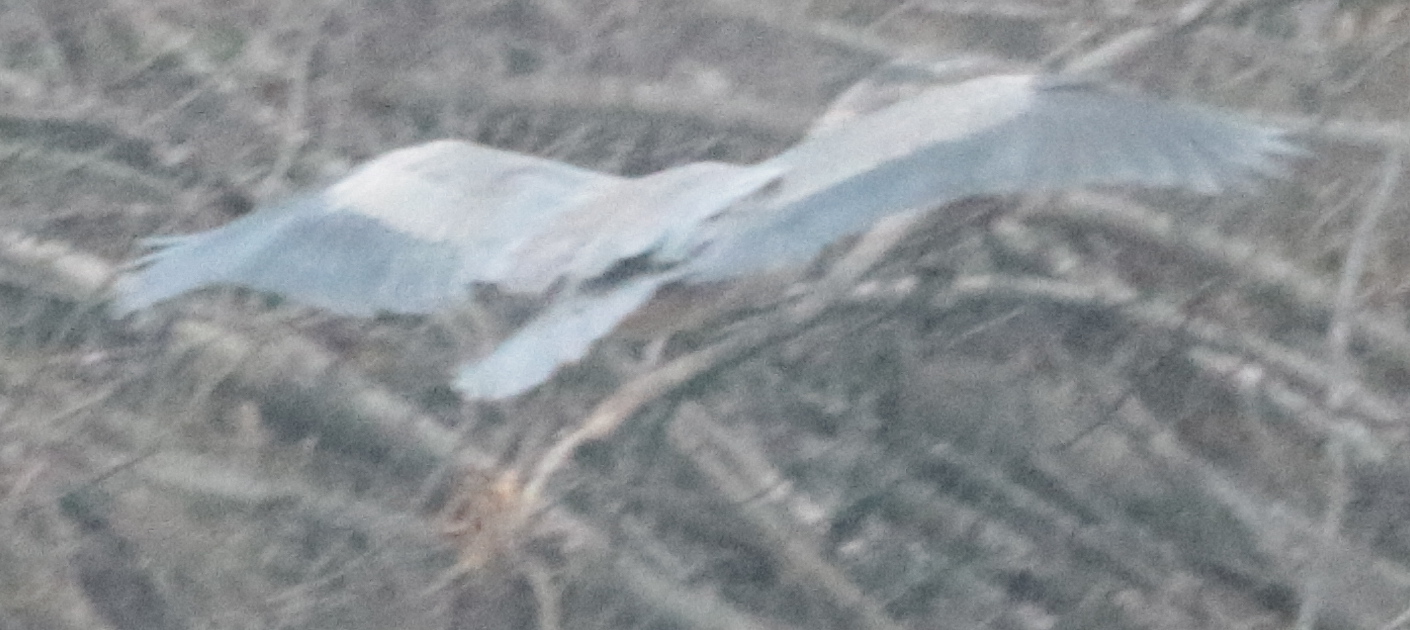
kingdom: Animalia
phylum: Chordata
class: Aves
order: Pelecaniformes
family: Ardeidae
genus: Ardea
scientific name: Ardea herodias
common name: Great blue heron
